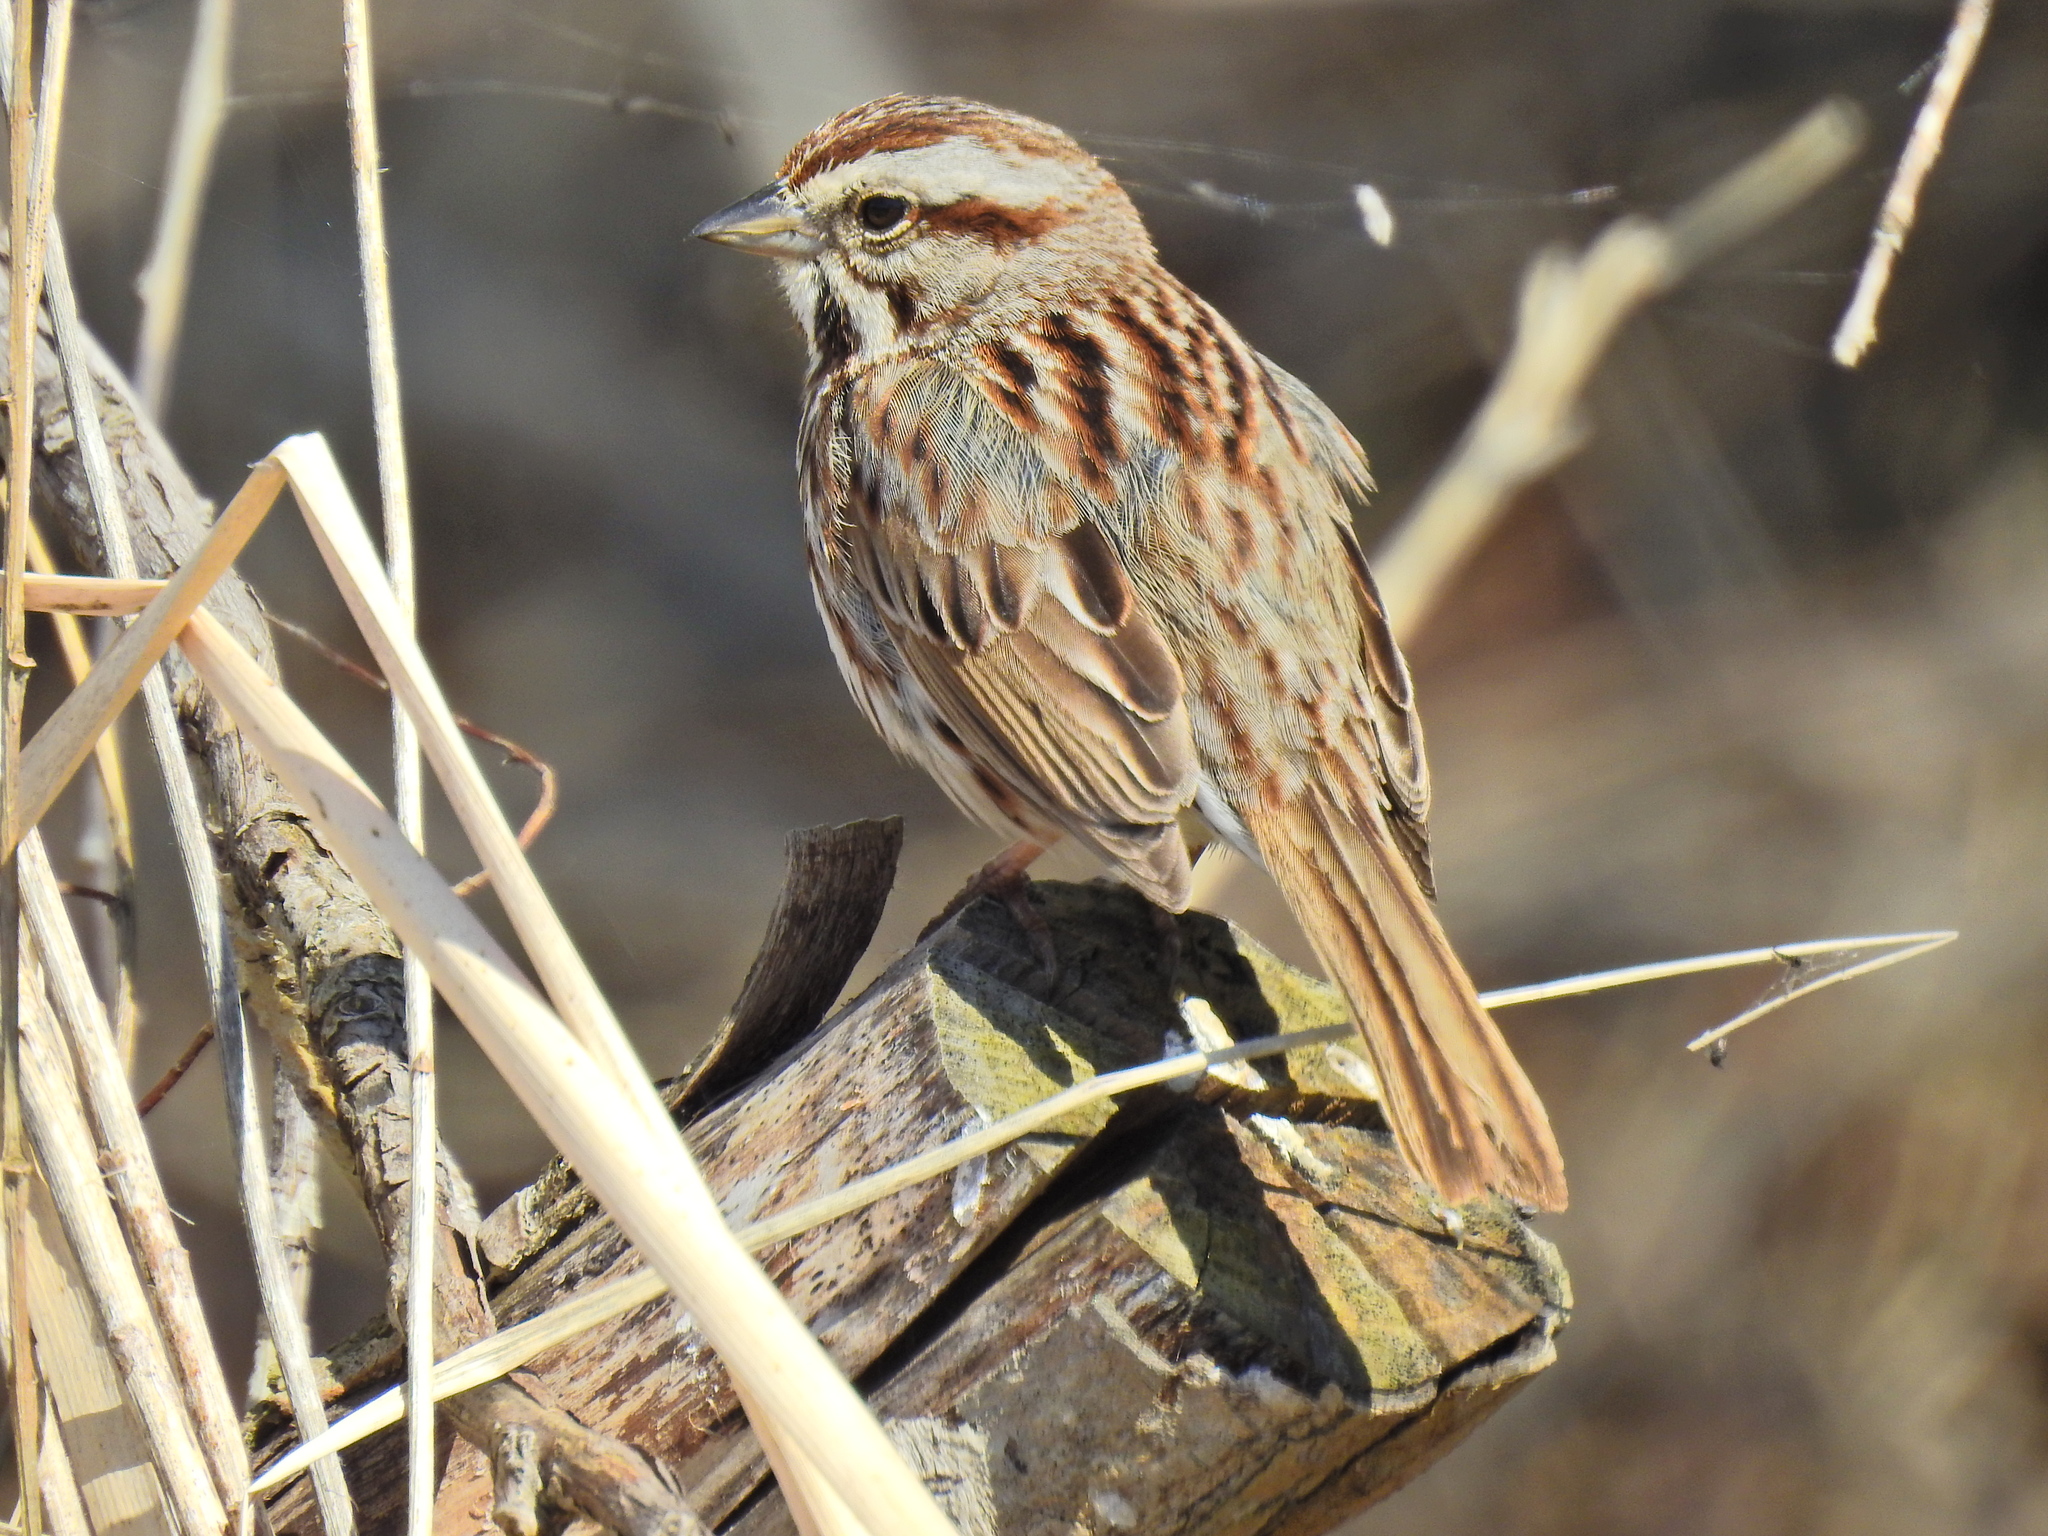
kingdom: Animalia
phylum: Chordata
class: Aves
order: Passeriformes
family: Passerellidae
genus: Melospiza
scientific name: Melospiza melodia
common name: Song sparrow
